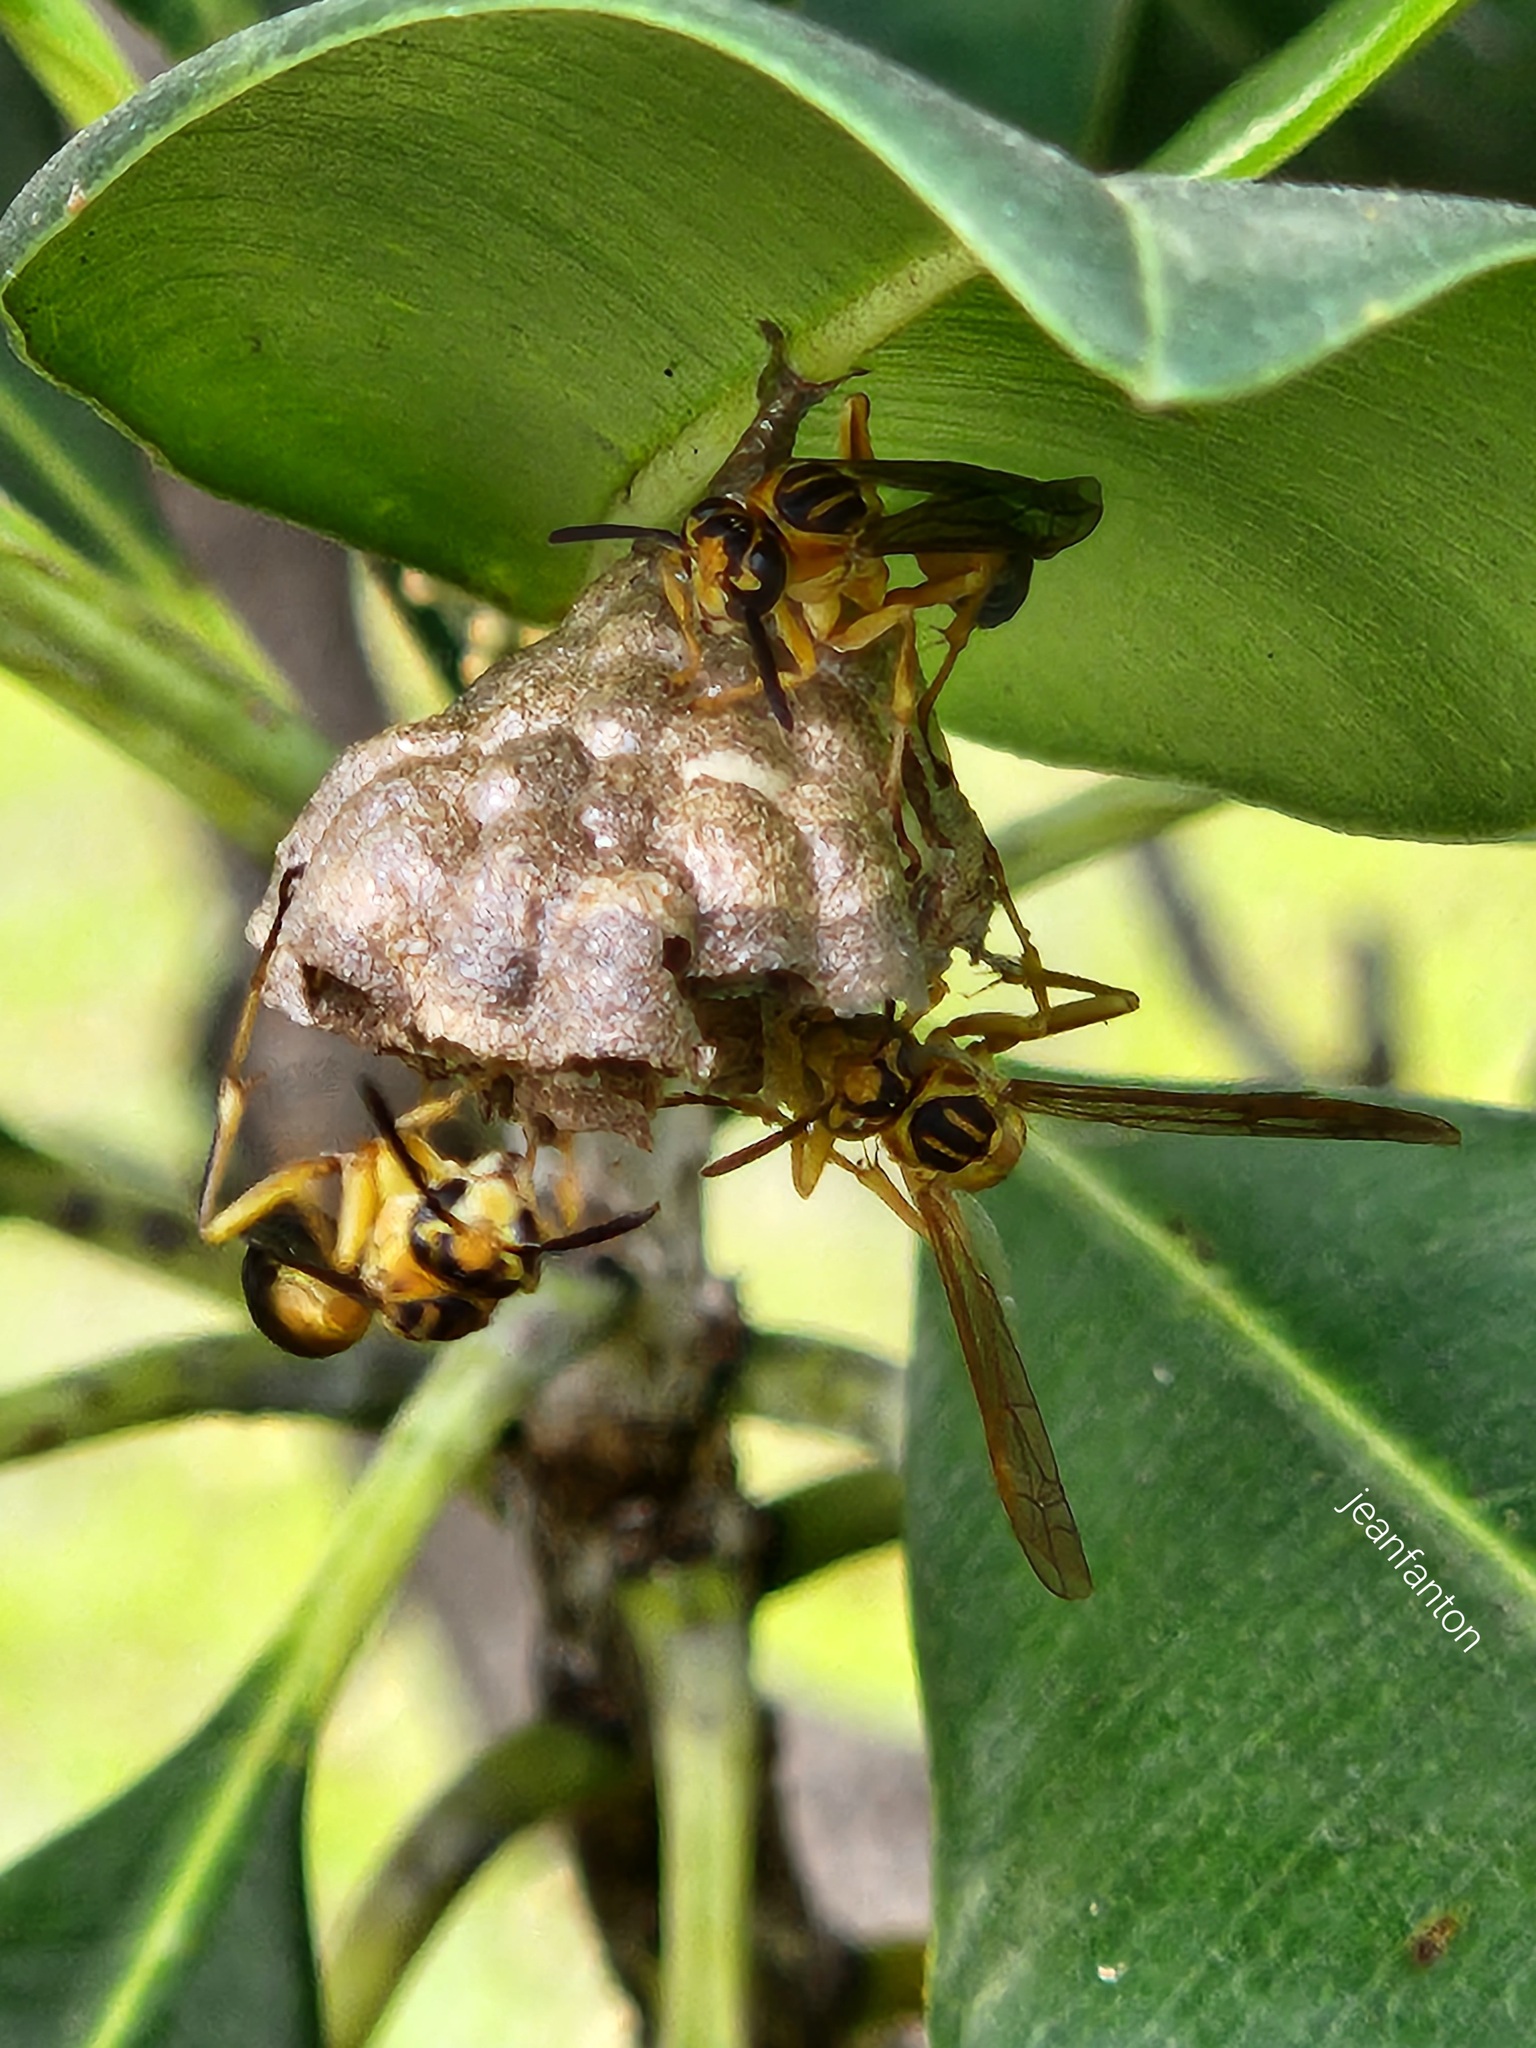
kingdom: Animalia
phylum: Arthropoda
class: Insecta
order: Hymenoptera
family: Vespidae
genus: Mischocyttarus
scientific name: Mischocyttarus cerberus
